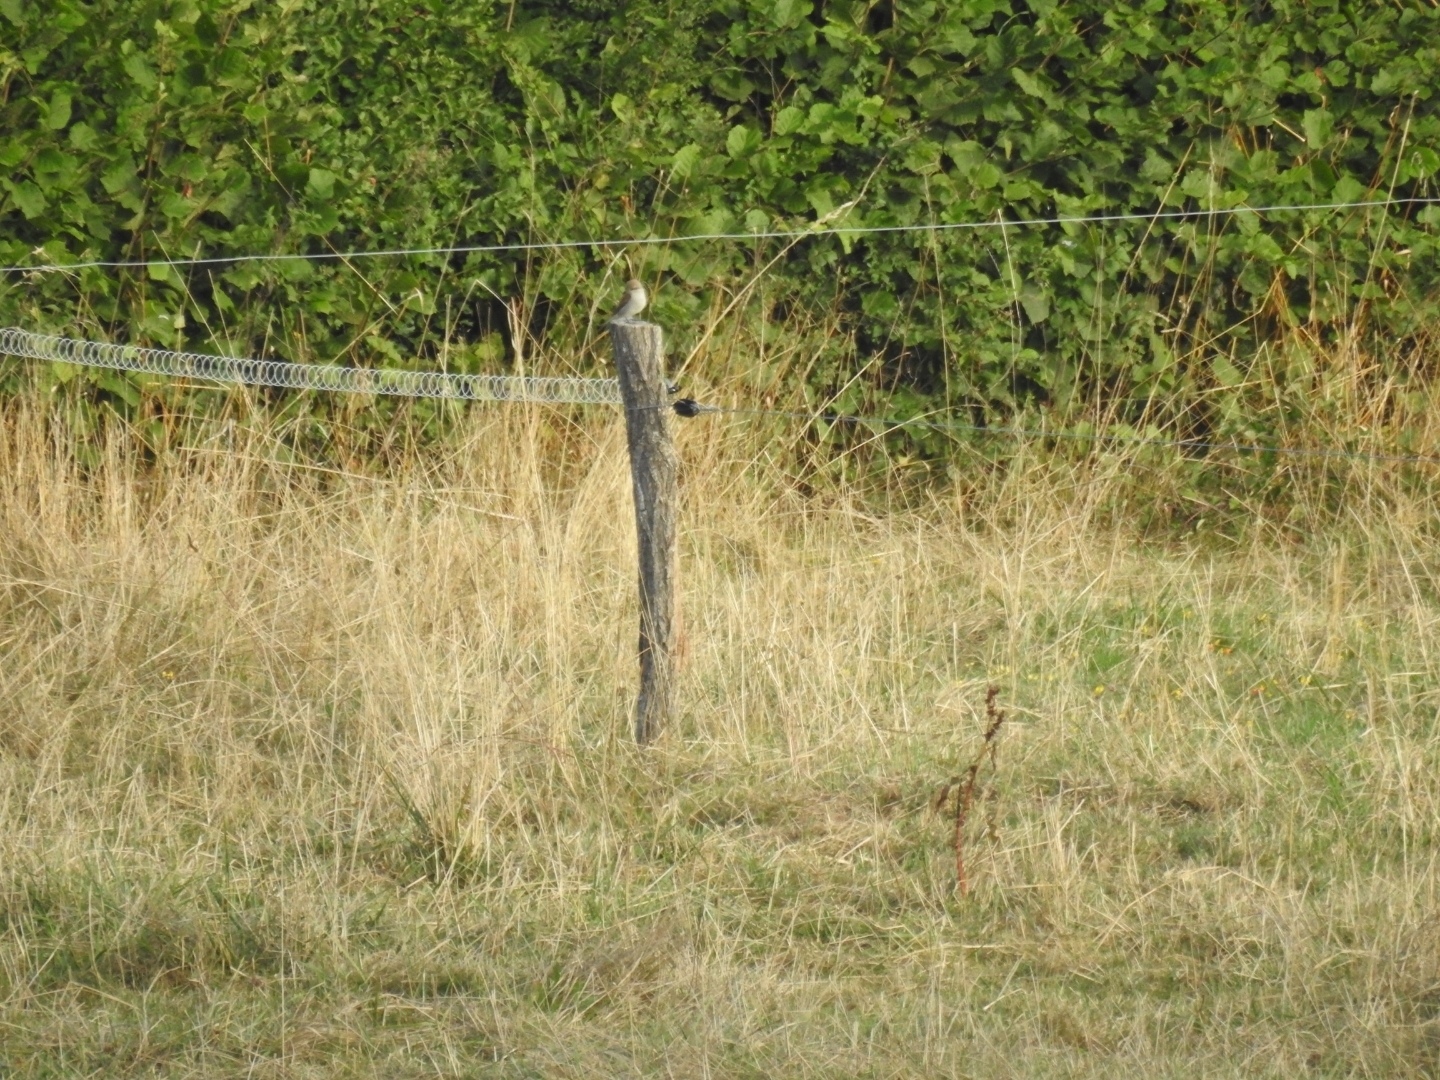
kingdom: Animalia
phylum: Chordata
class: Aves
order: Passeriformes
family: Laniidae
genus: Lanius
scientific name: Lanius collurio
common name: Red-backed shrike
